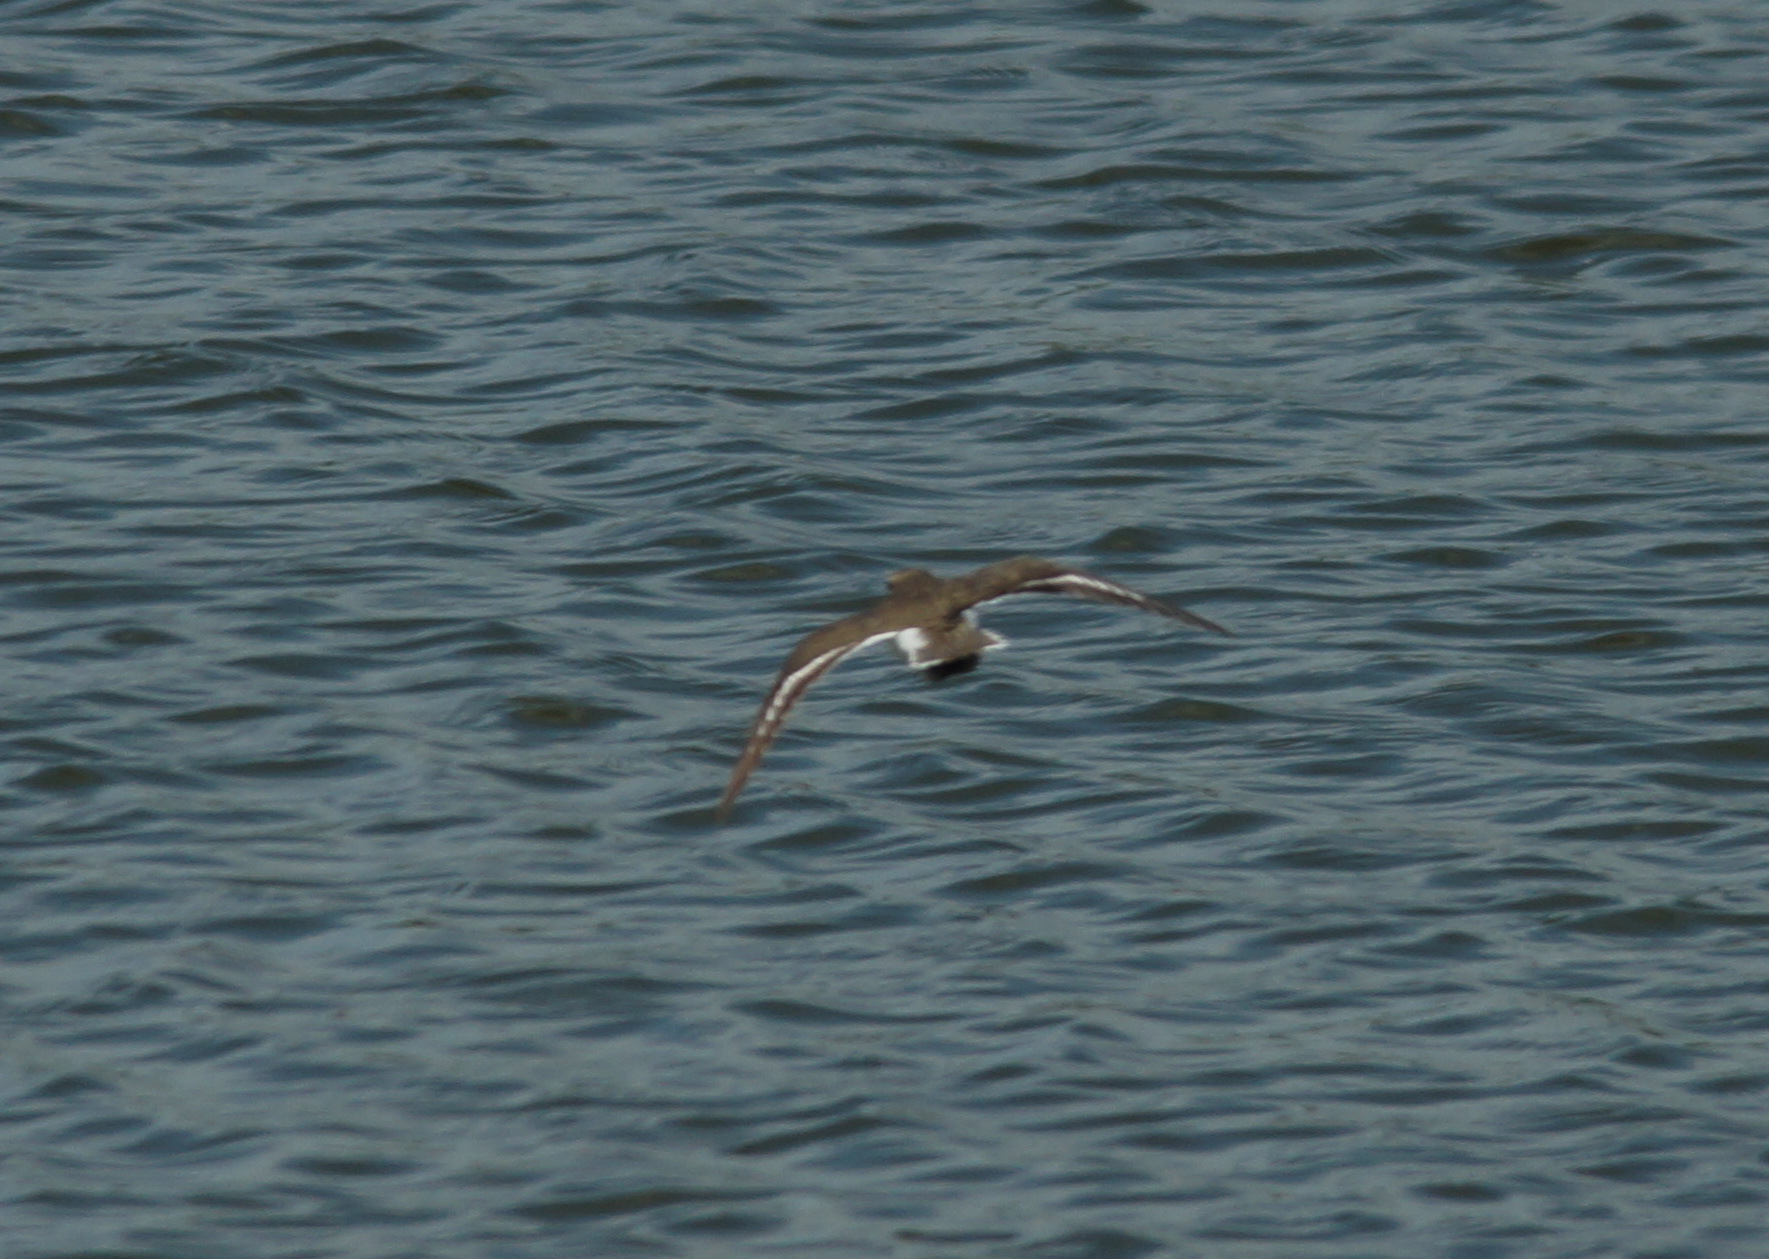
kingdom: Animalia
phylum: Chordata
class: Aves
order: Charadriiformes
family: Scolopacidae
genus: Actitis
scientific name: Actitis hypoleucos
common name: Common sandpiper
